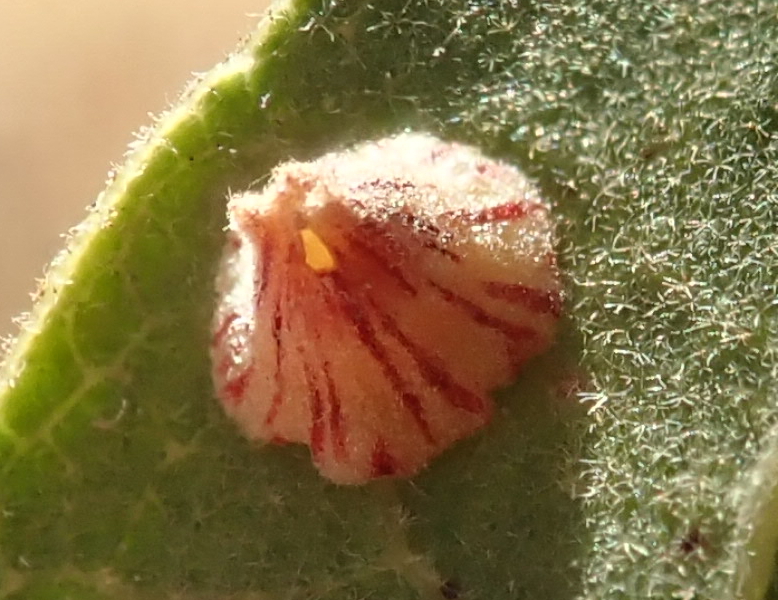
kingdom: Animalia
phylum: Arthropoda
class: Insecta
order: Hymenoptera
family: Cynipidae
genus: Andricus
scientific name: Andricus
